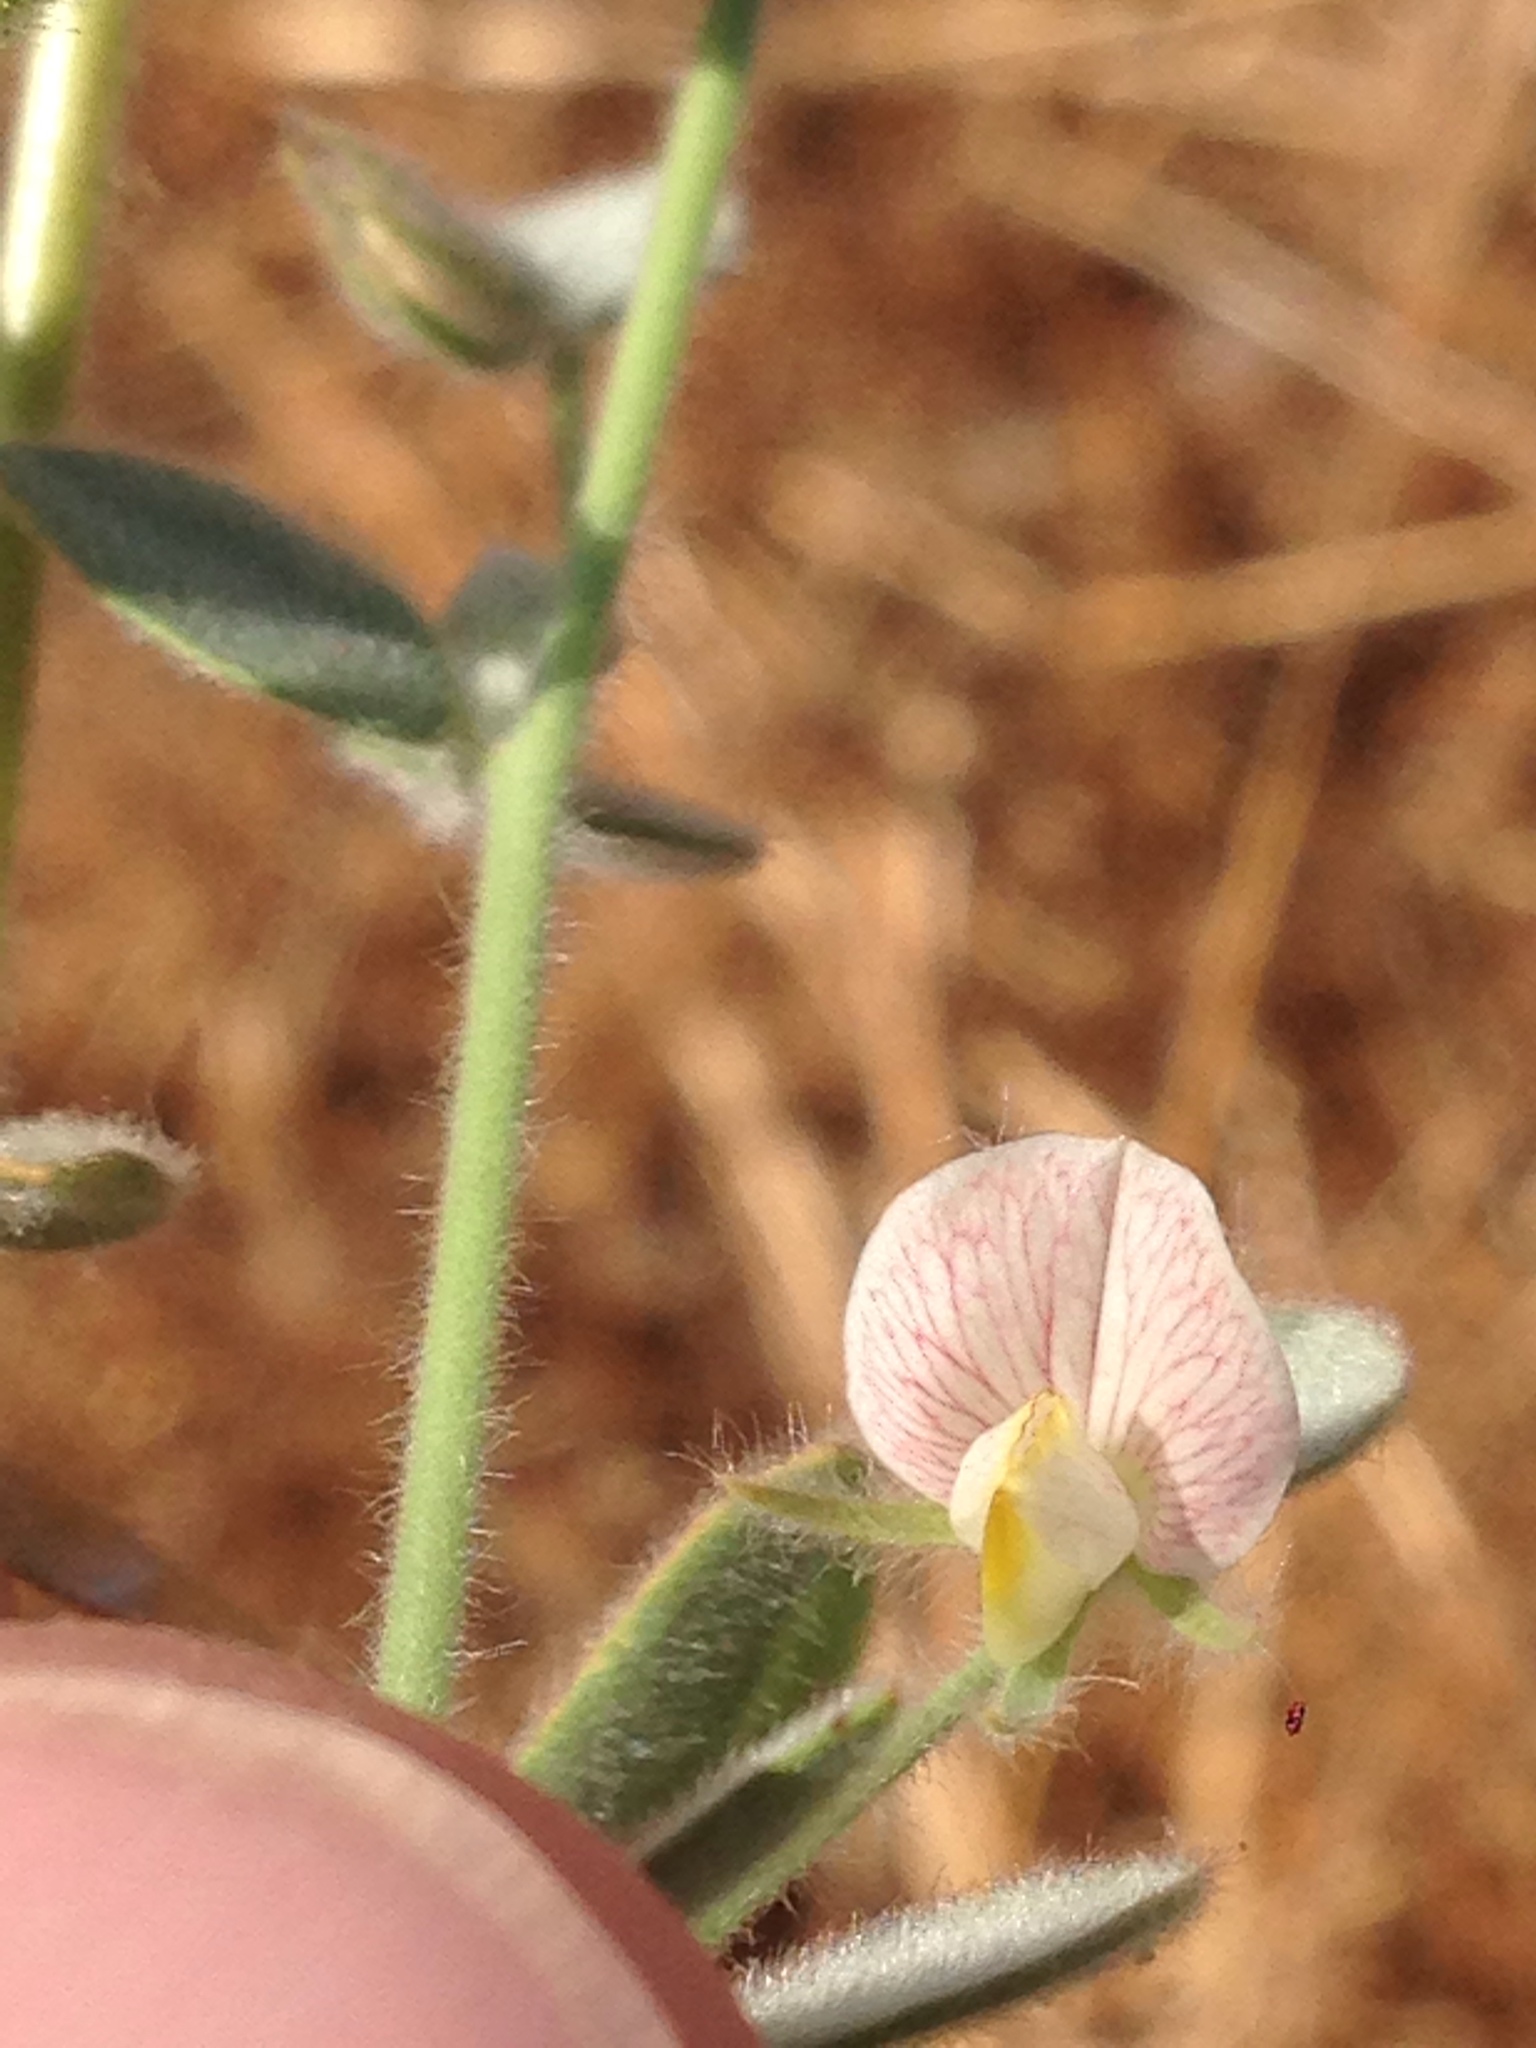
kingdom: Plantae
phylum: Tracheophyta
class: Magnoliopsida
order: Fabales
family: Fabaceae
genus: Acmispon
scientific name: Acmispon americanus
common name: American bird's-foot trefoil
